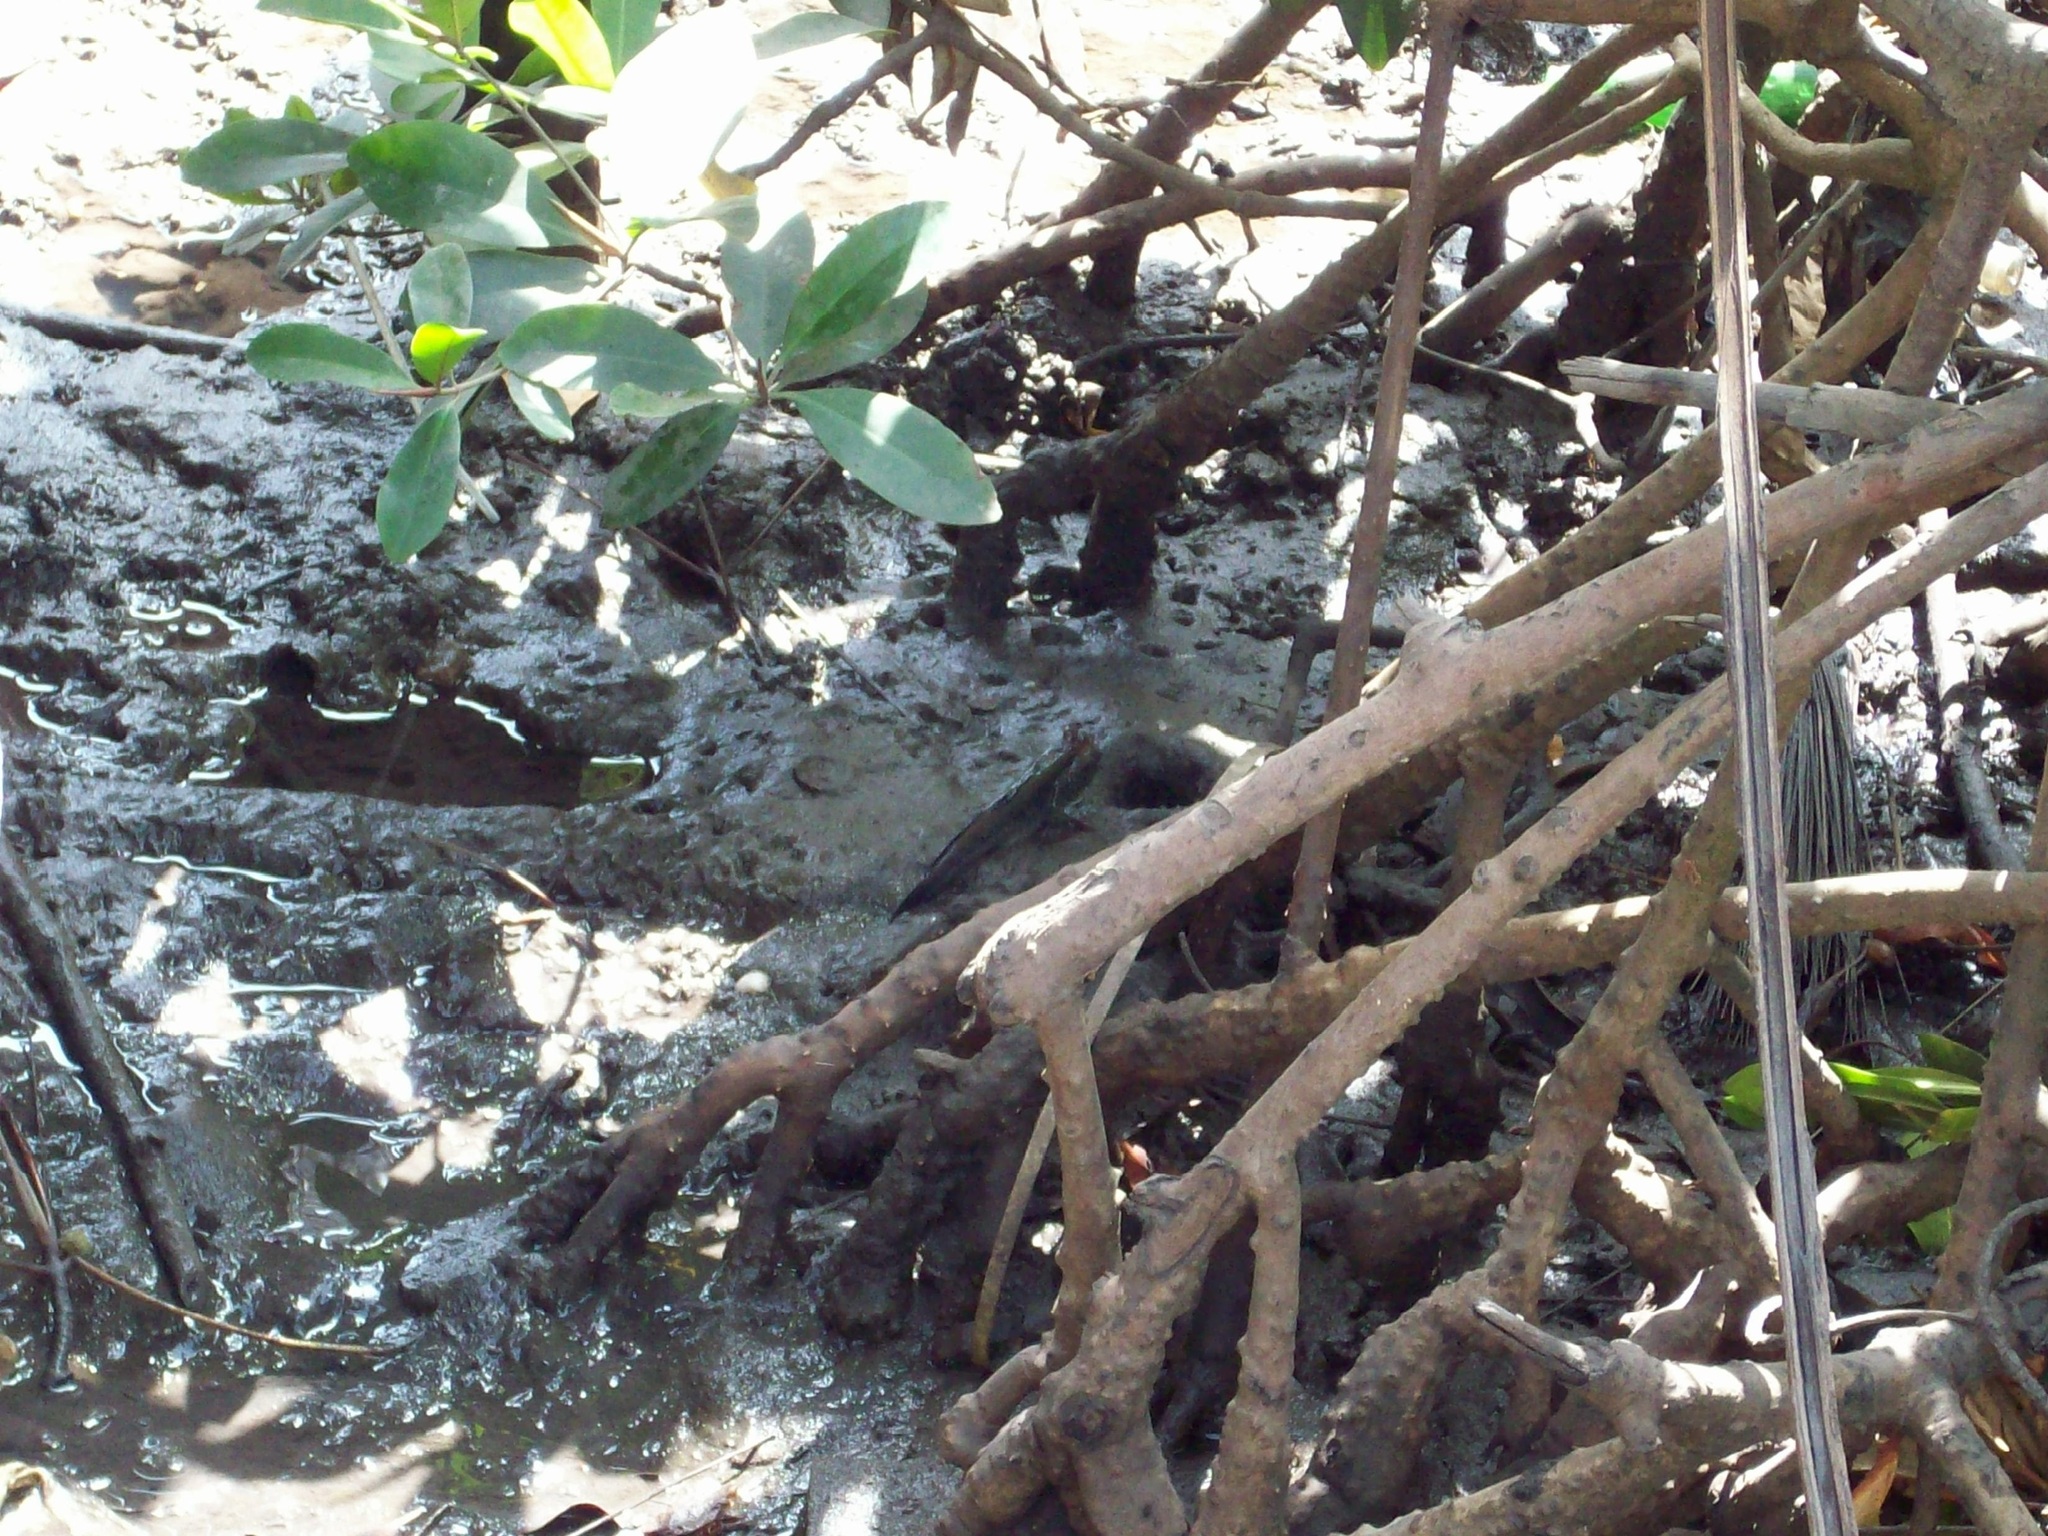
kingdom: Animalia
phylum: Chordata
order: Perciformes
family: Gobiidae
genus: Periophthalmus
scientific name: Periophthalmus barbarus
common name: Atlantic mudskipper
